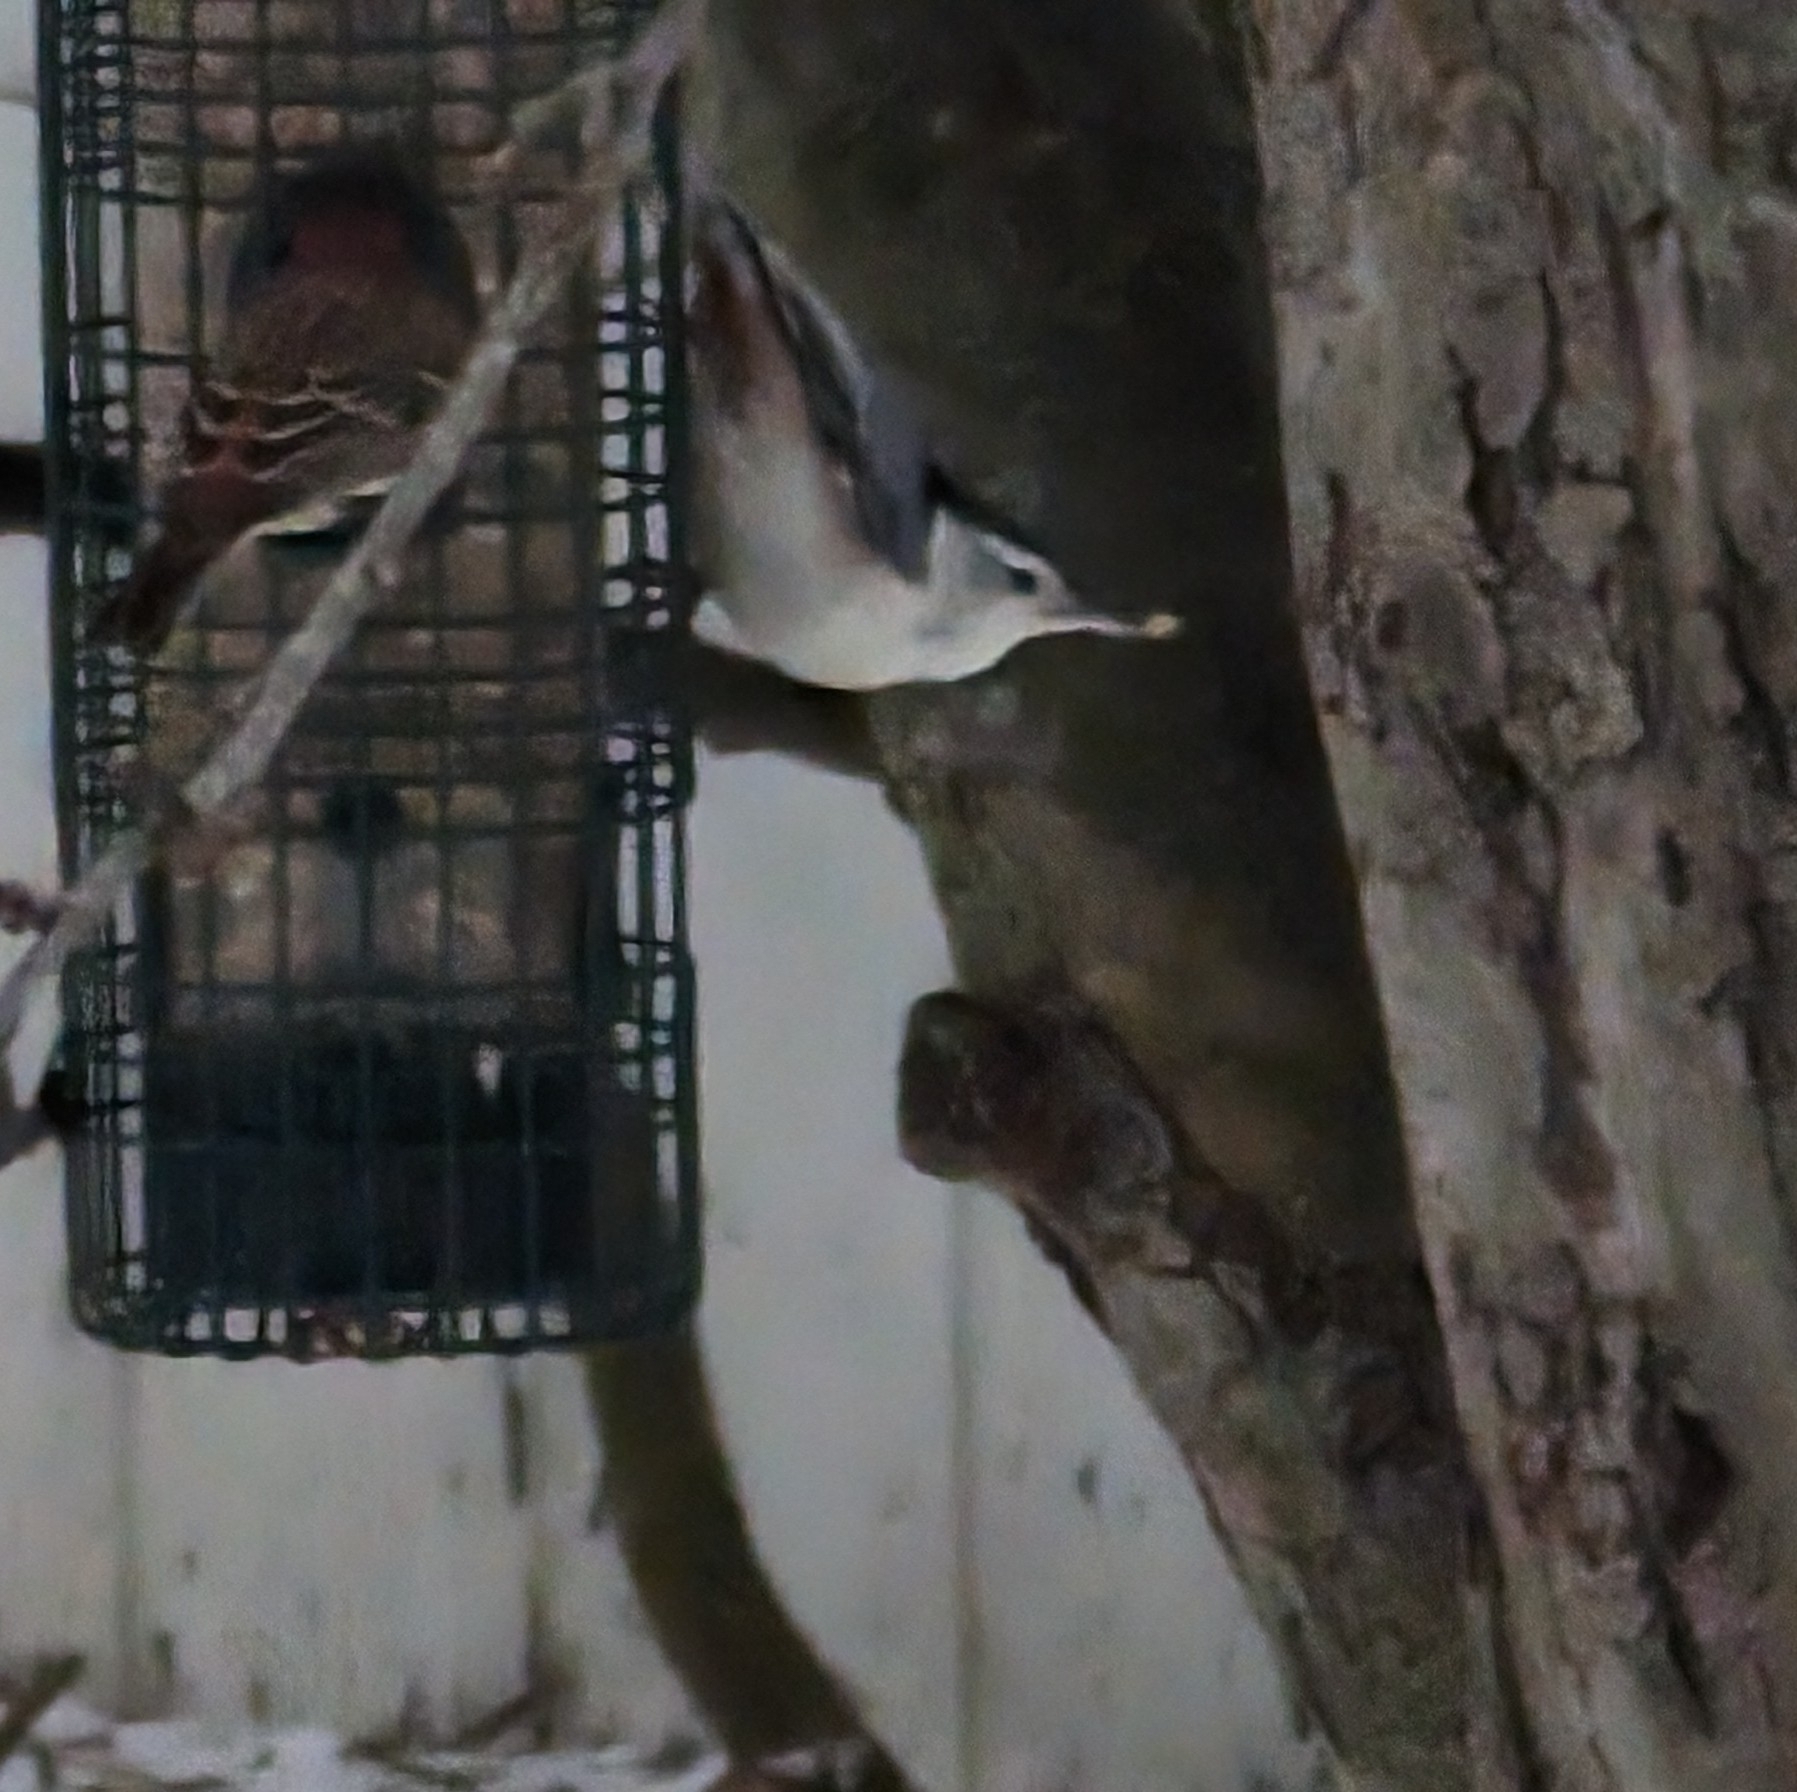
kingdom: Animalia
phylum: Chordata
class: Aves
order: Passeriformes
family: Sittidae
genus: Sitta
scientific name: Sitta carolinensis
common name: White-breasted nuthatch
